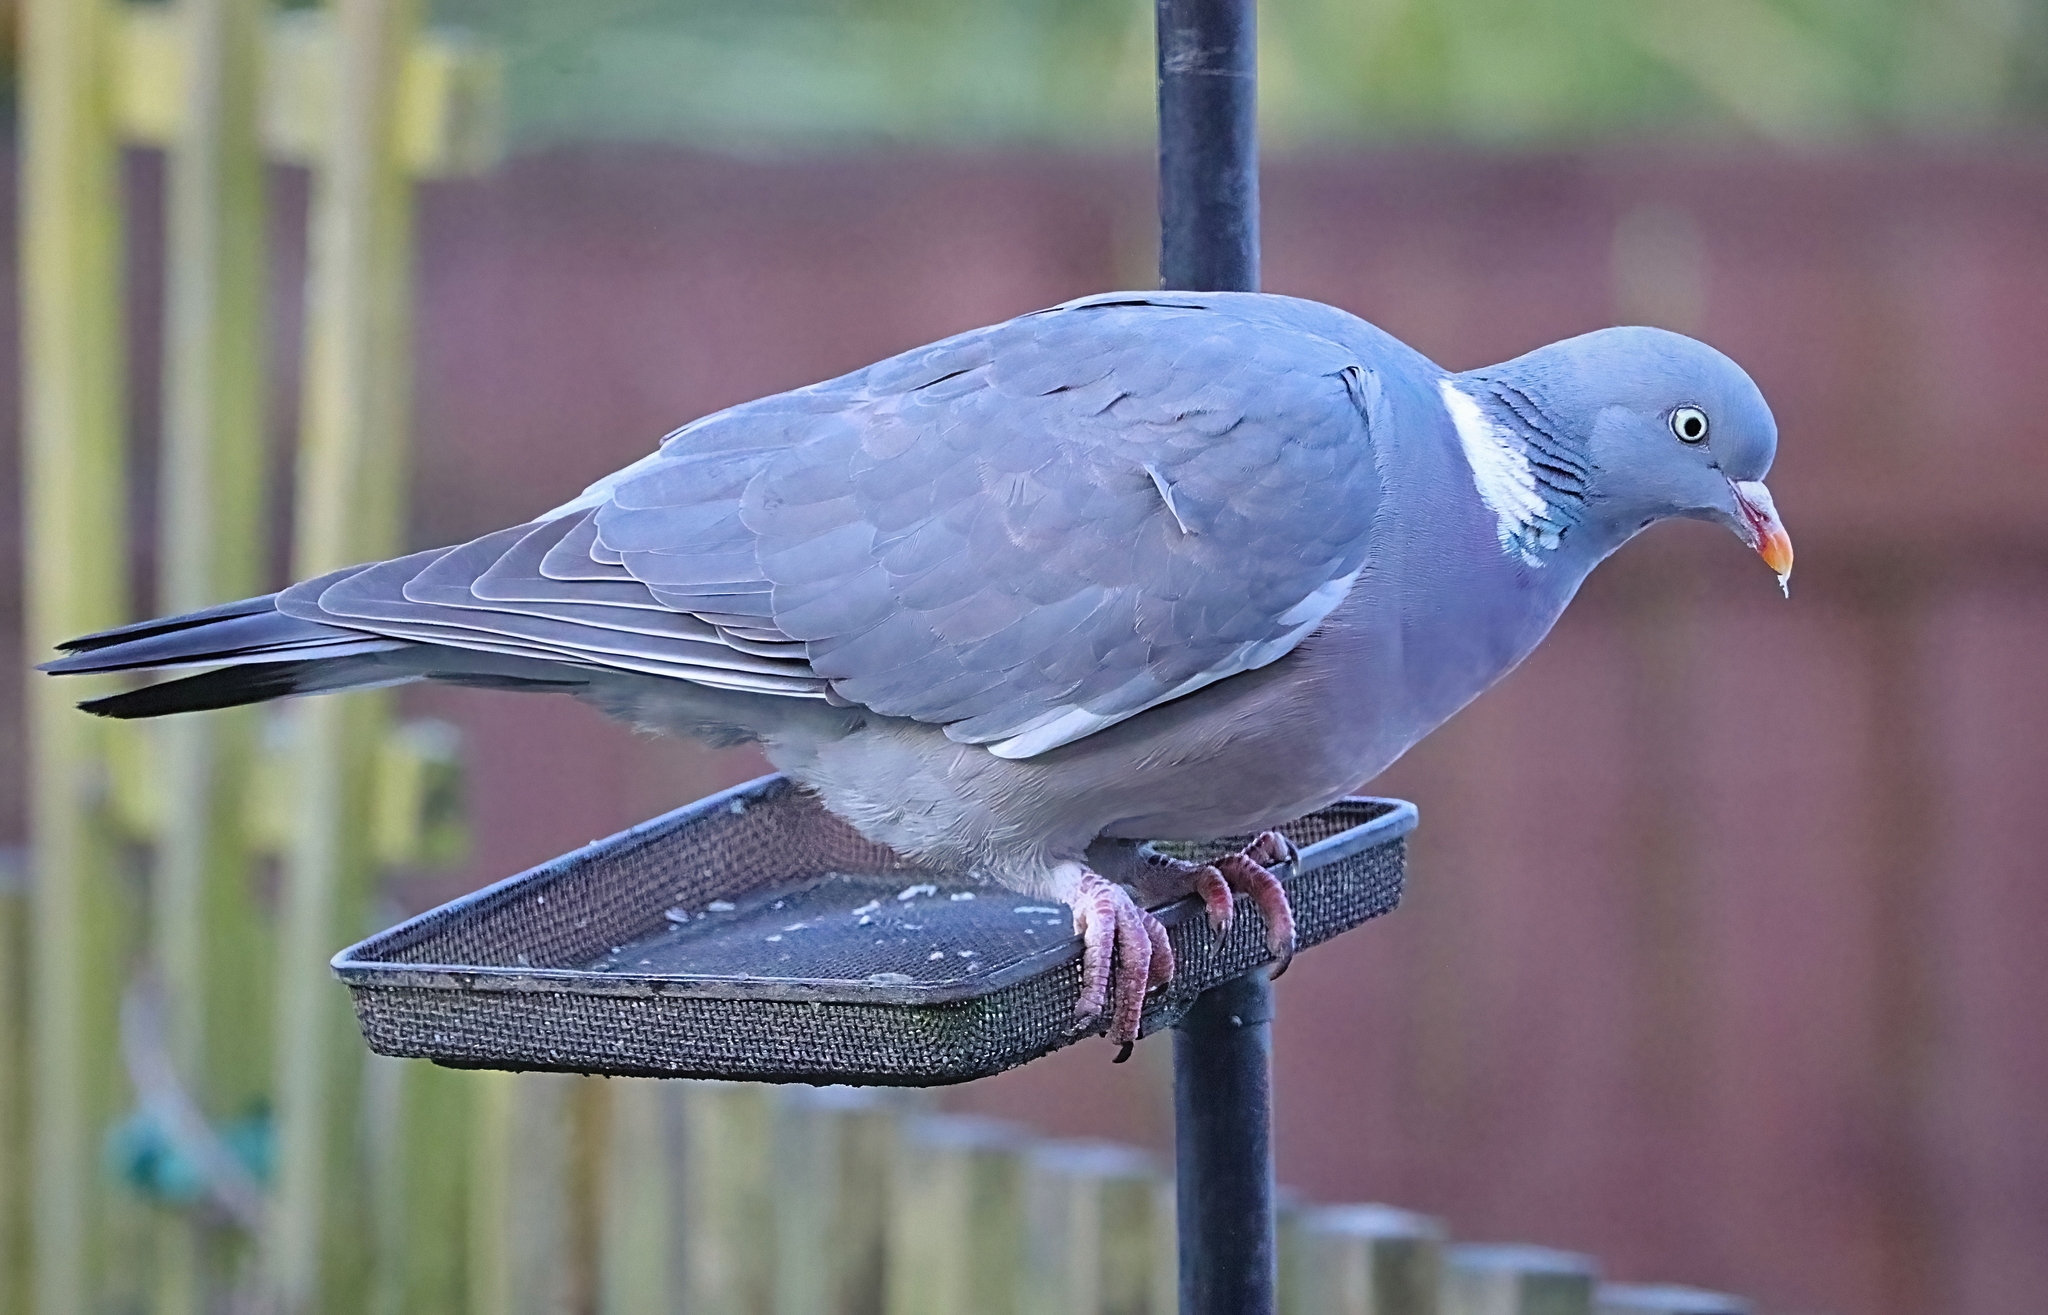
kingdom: Animalia
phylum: Chordata
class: Aves
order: Columbiformes
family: Columbidae
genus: Columba
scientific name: Columba palumbus
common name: Common wood pigeon
